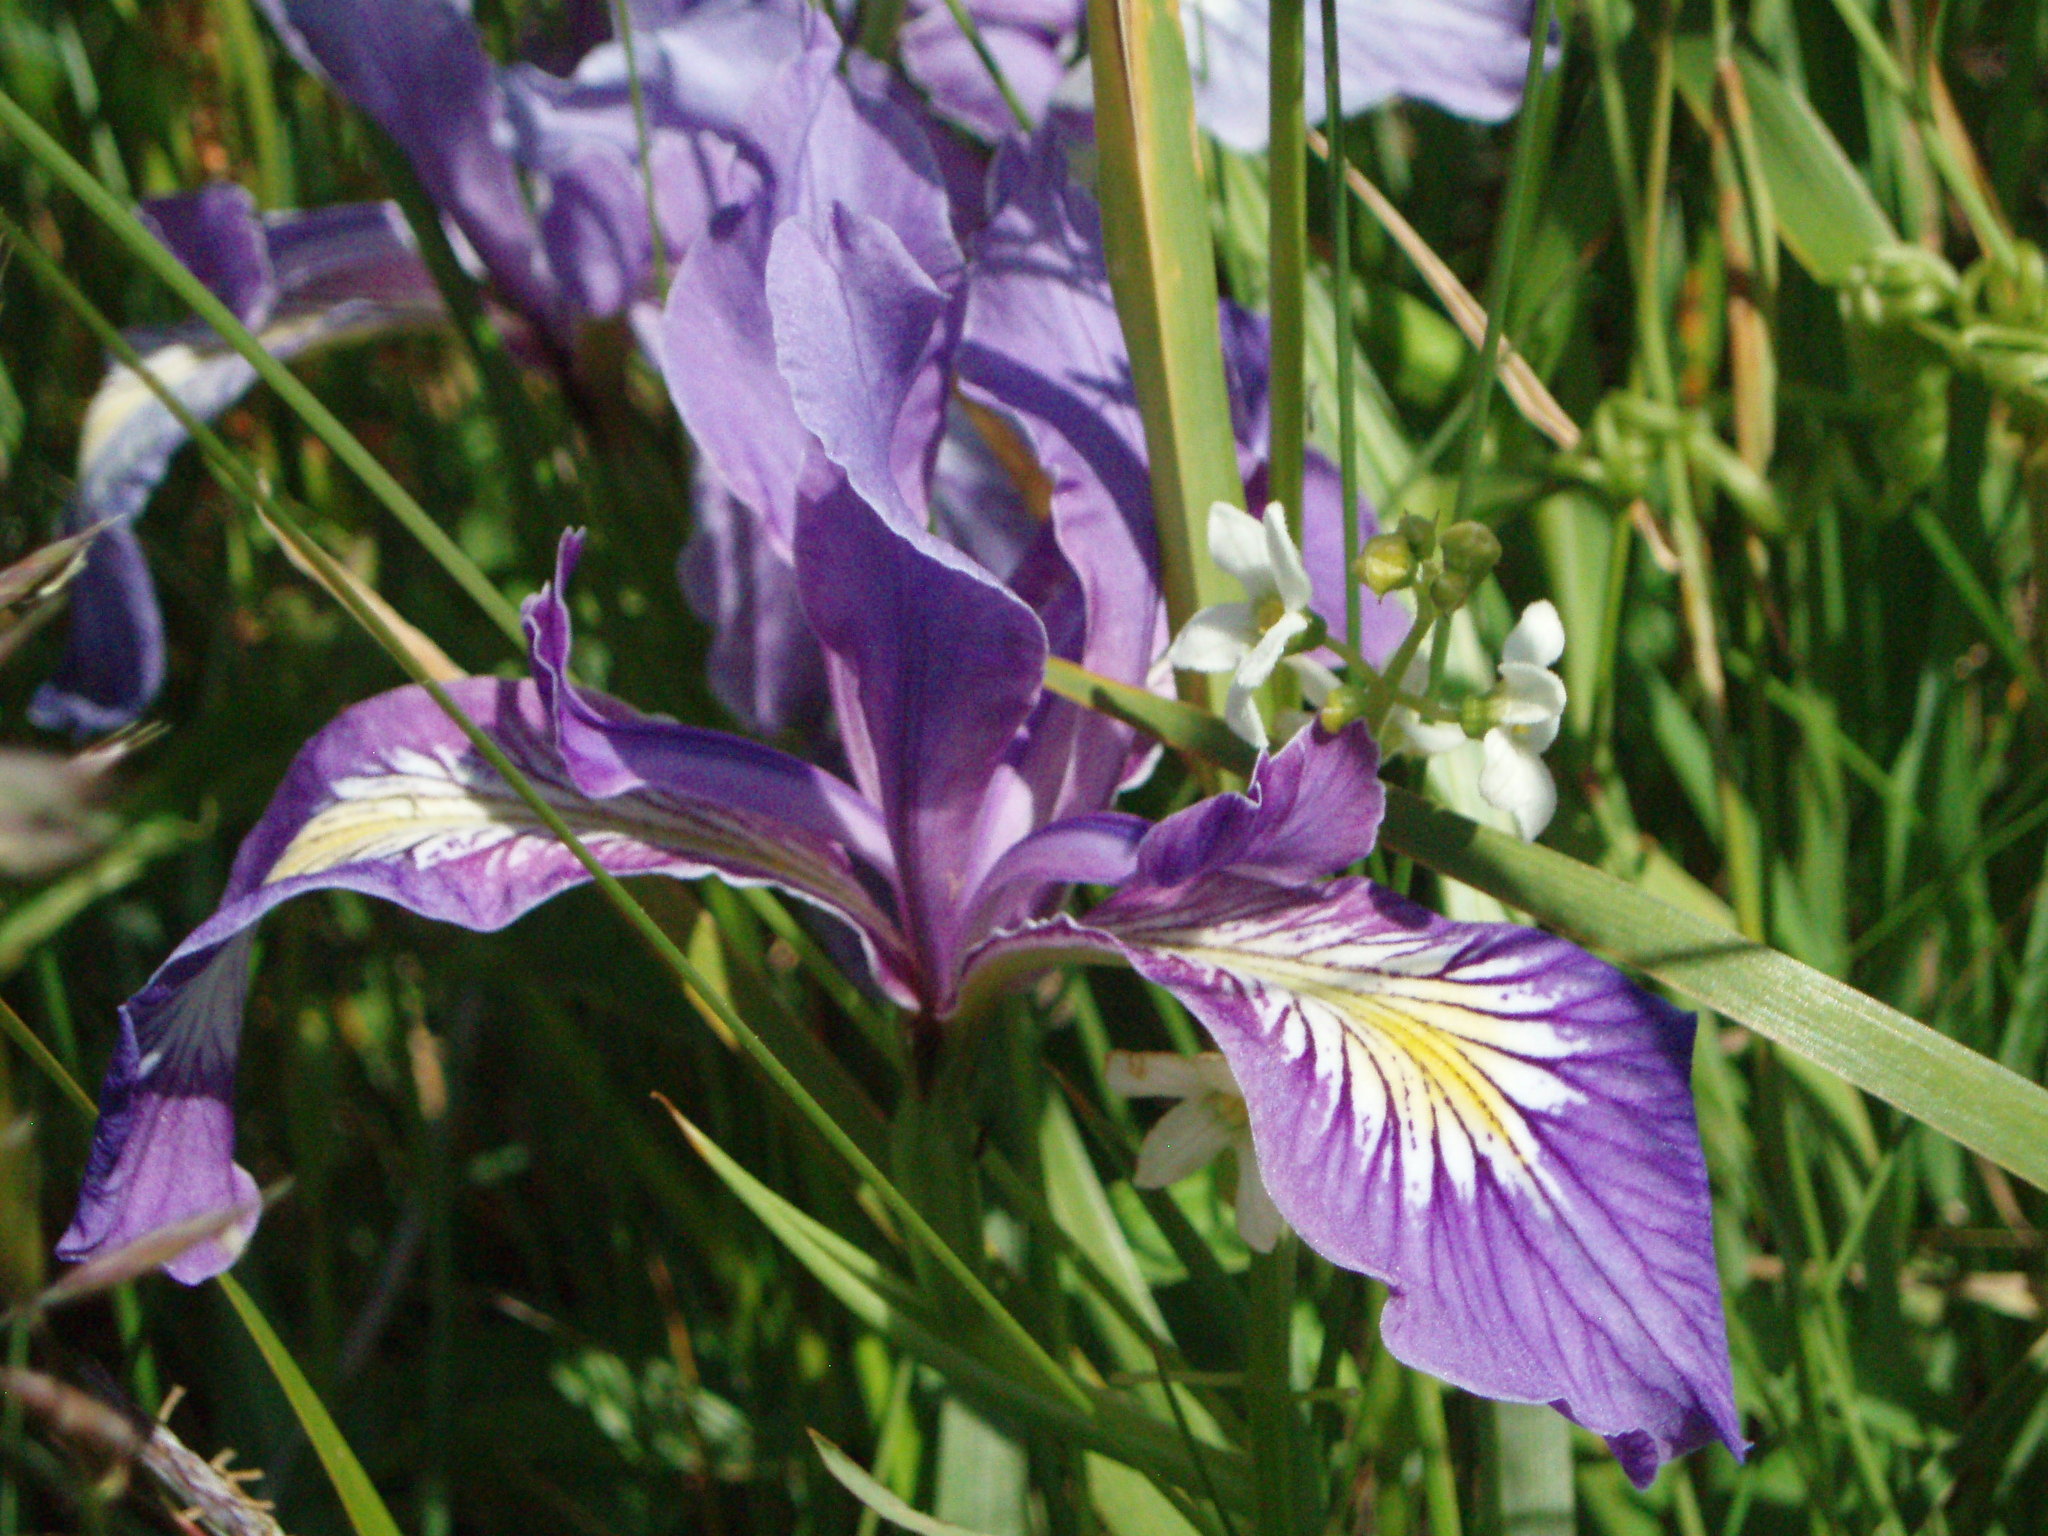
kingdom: Plantae
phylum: Tracheophyta
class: Liliopsida
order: Asparagales
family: Iridaceae
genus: Iris
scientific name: Iris tenax
